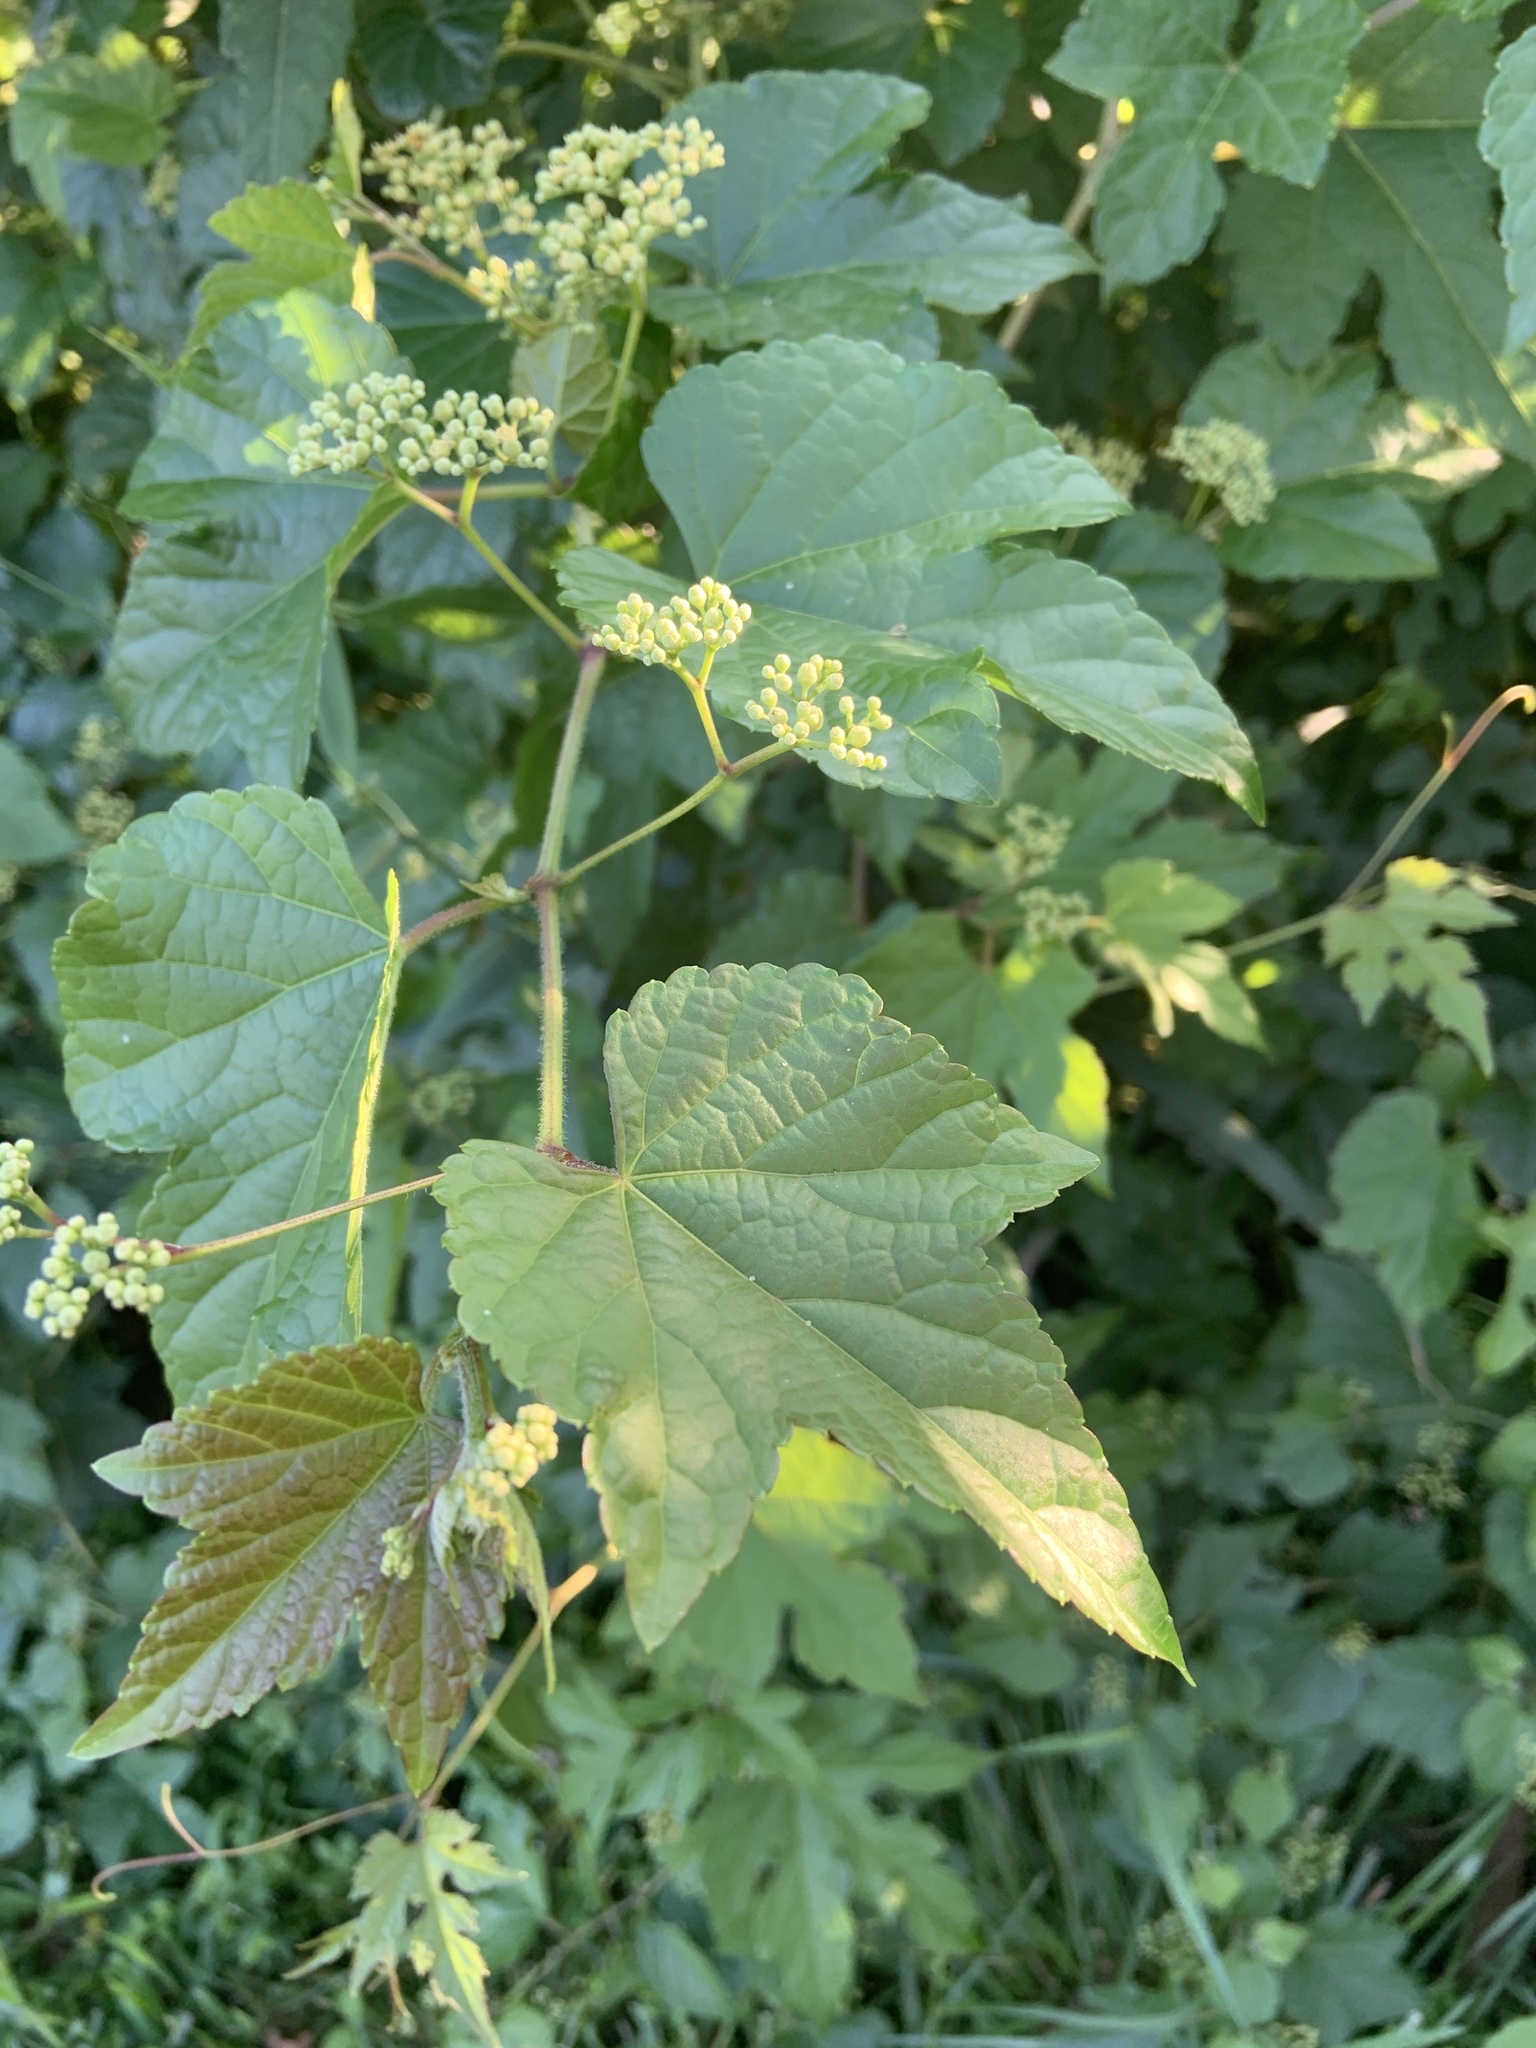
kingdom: Plantae
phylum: Tracheophyta
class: Magnoliopsida
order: Vitales
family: Vitaceae
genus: Ampelopsis
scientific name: Ampelopsis glandulosa
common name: Amur peppervine
